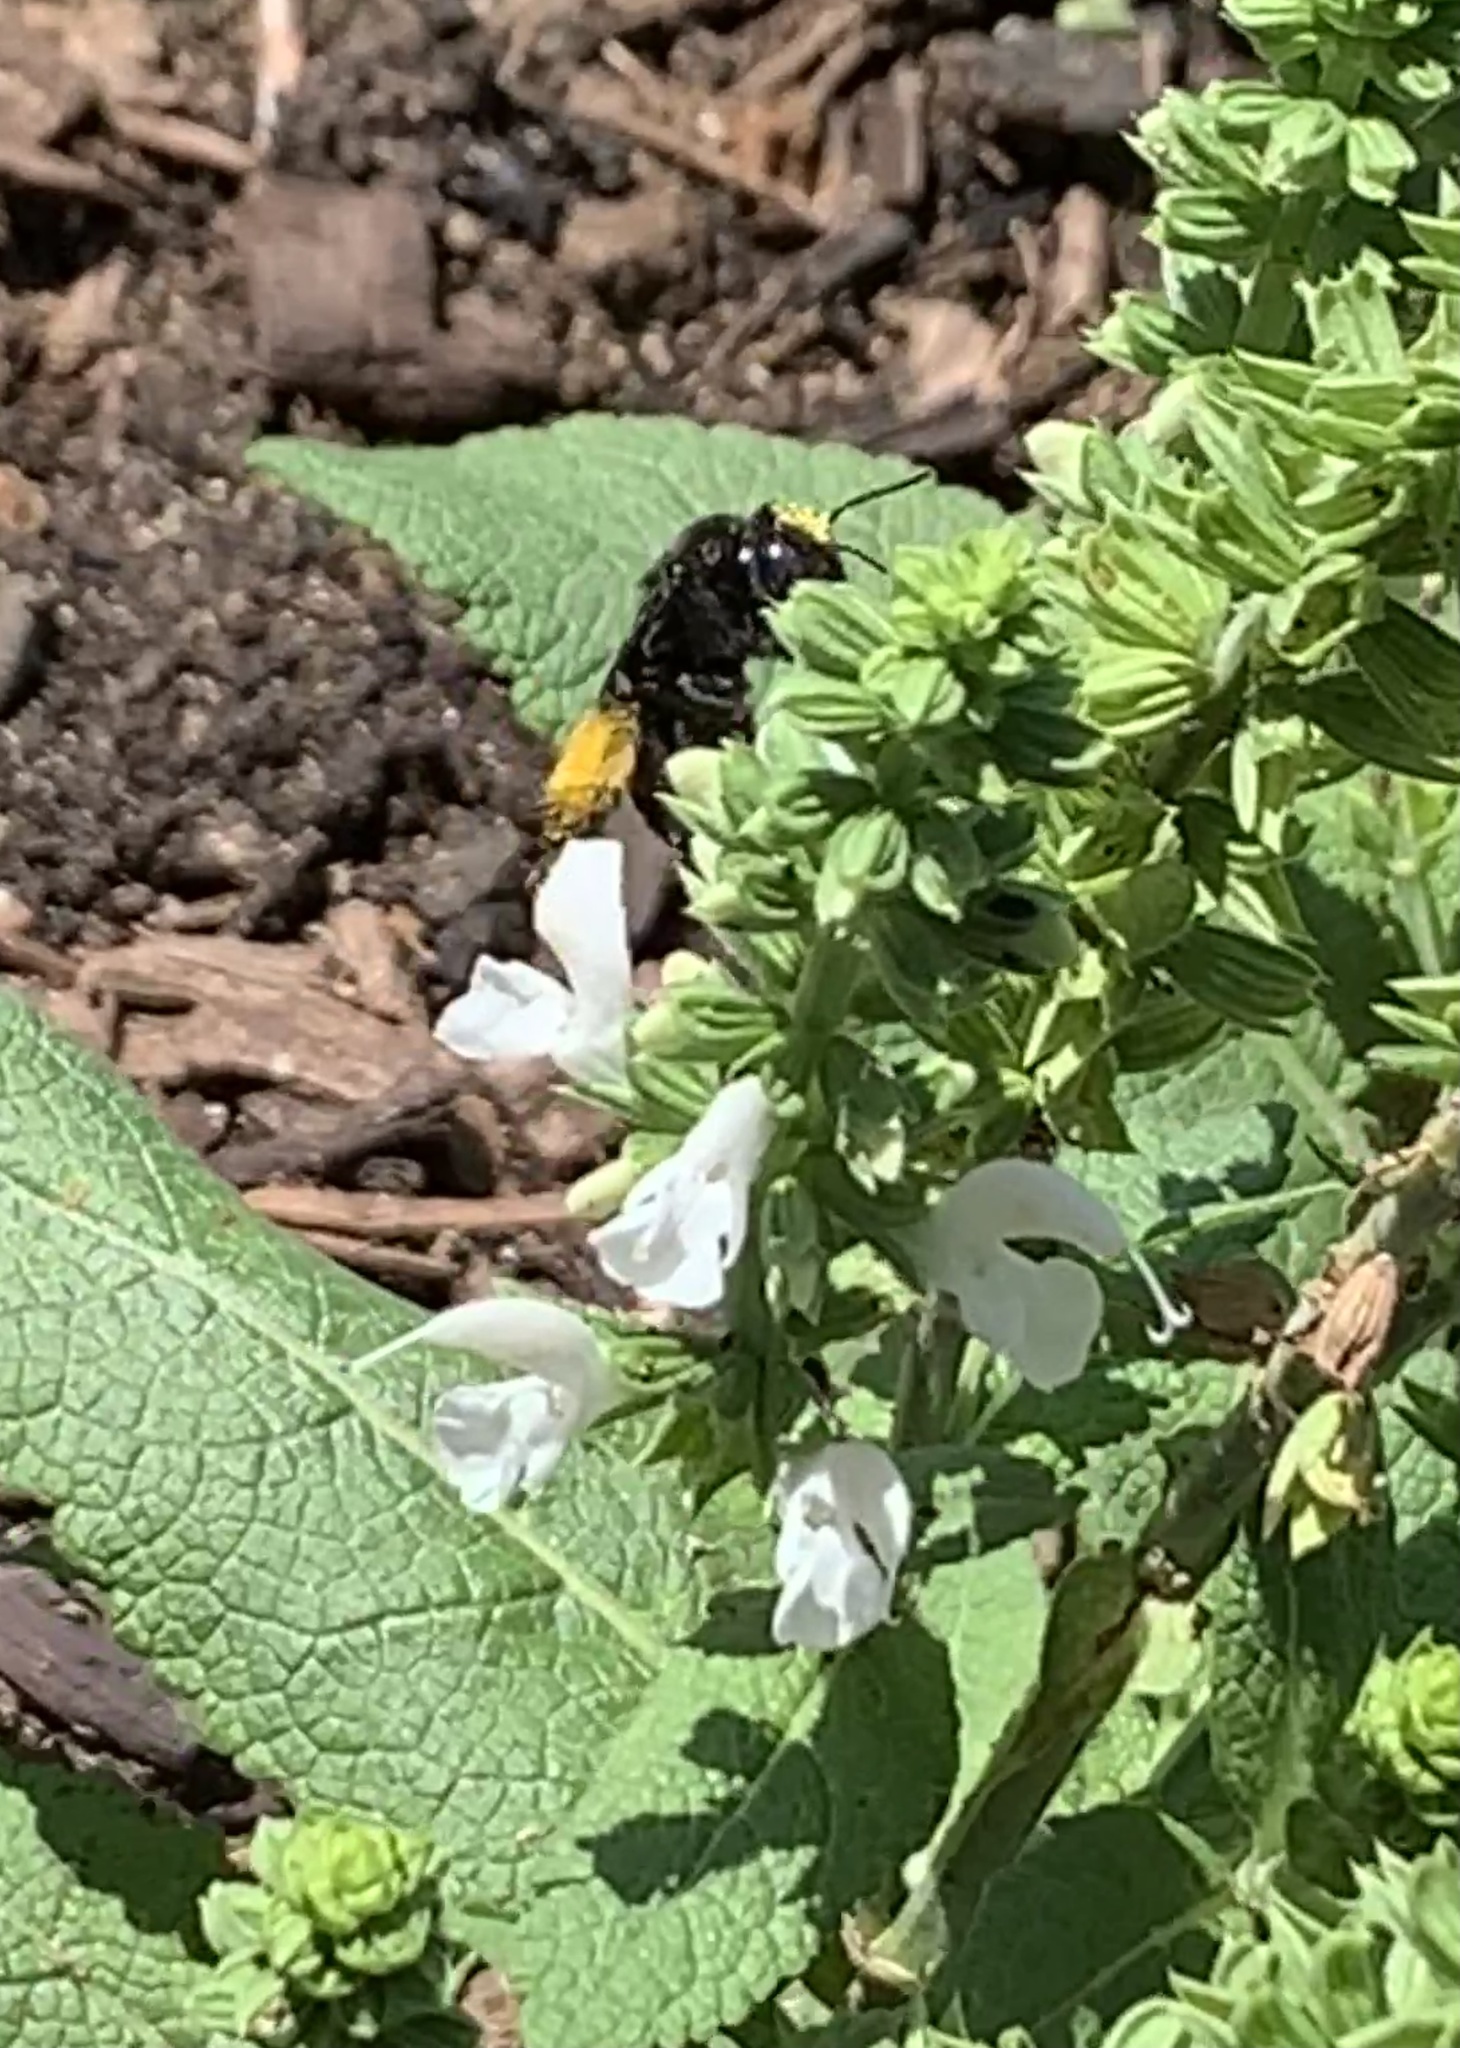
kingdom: Animalia
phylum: Arthropoda
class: Insecta
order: Hymenoptera
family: Apidae
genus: Melissodes
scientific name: Melissodes bimaculatus
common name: Two-spotted long-horned bee
